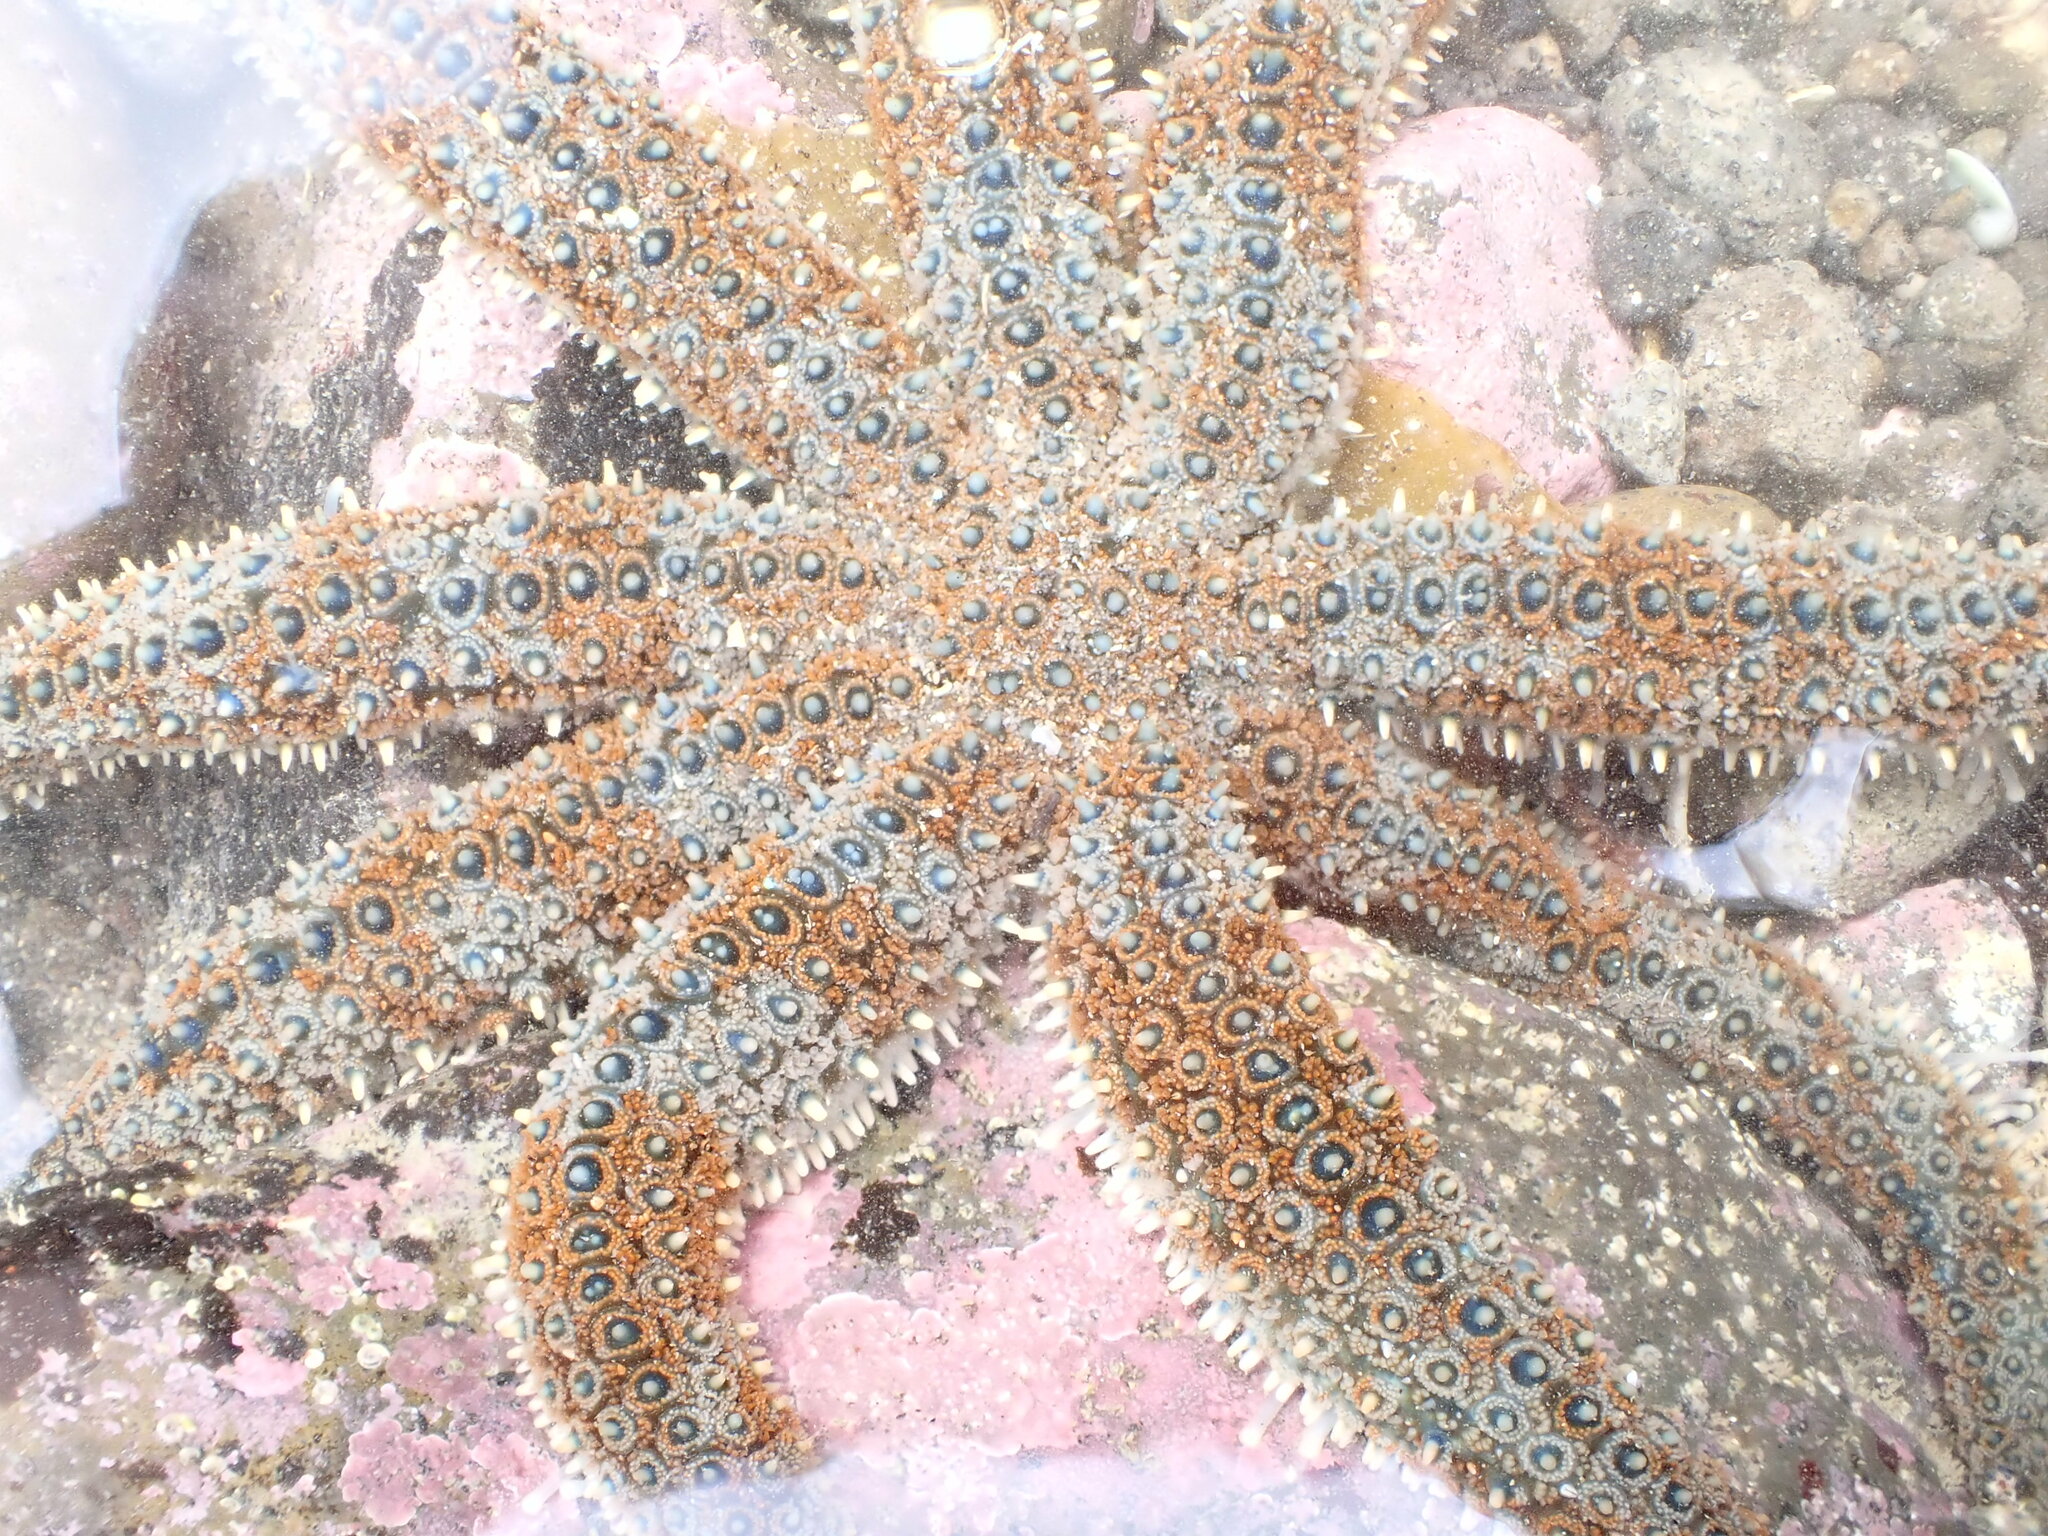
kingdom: Animalia
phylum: Echinodermata
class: Asteroidea
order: Forcipulatida
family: Asteriidae
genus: Coscinasterias
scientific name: Coscinasterias muricata
